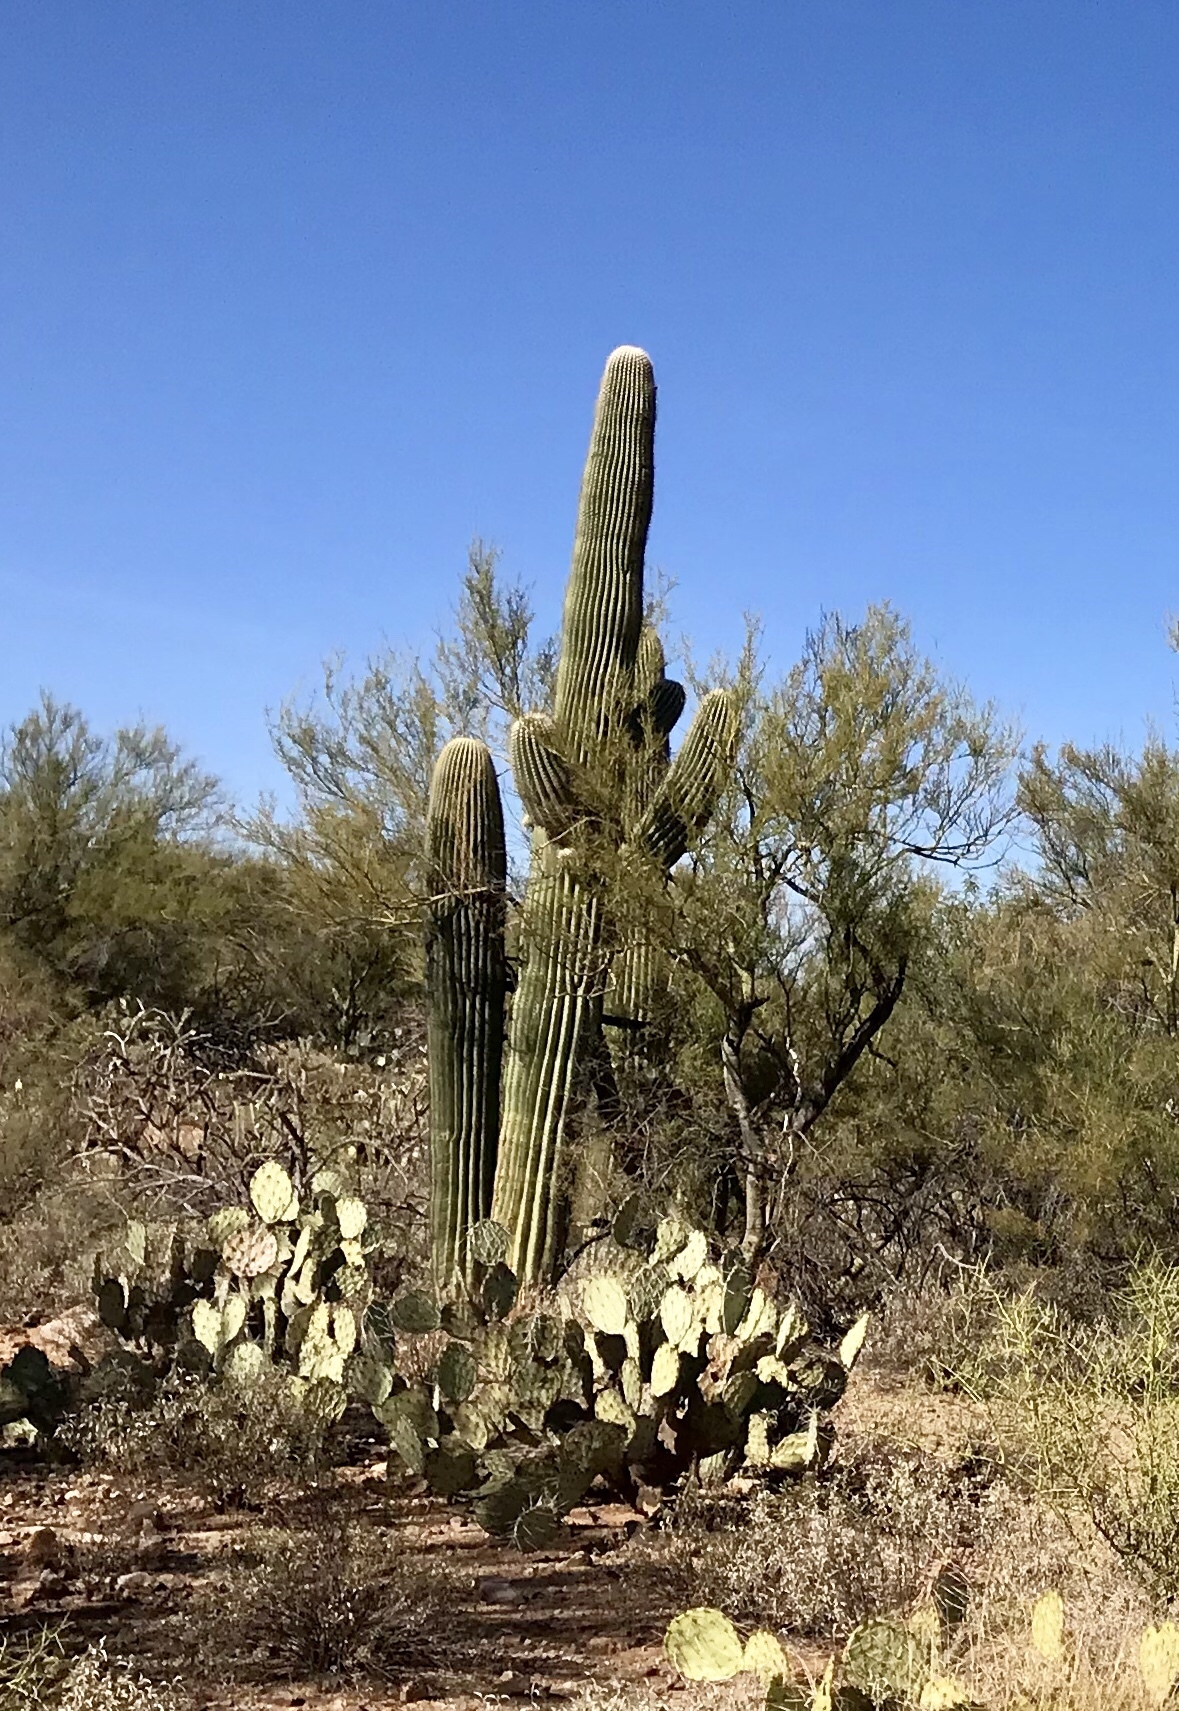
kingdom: Plantae
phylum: Tracheophyta
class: Magnoliopsida
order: Caryophyllales
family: Cactaceae
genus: Carnegiea
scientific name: Carnegiea gigantea
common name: Saguaro
